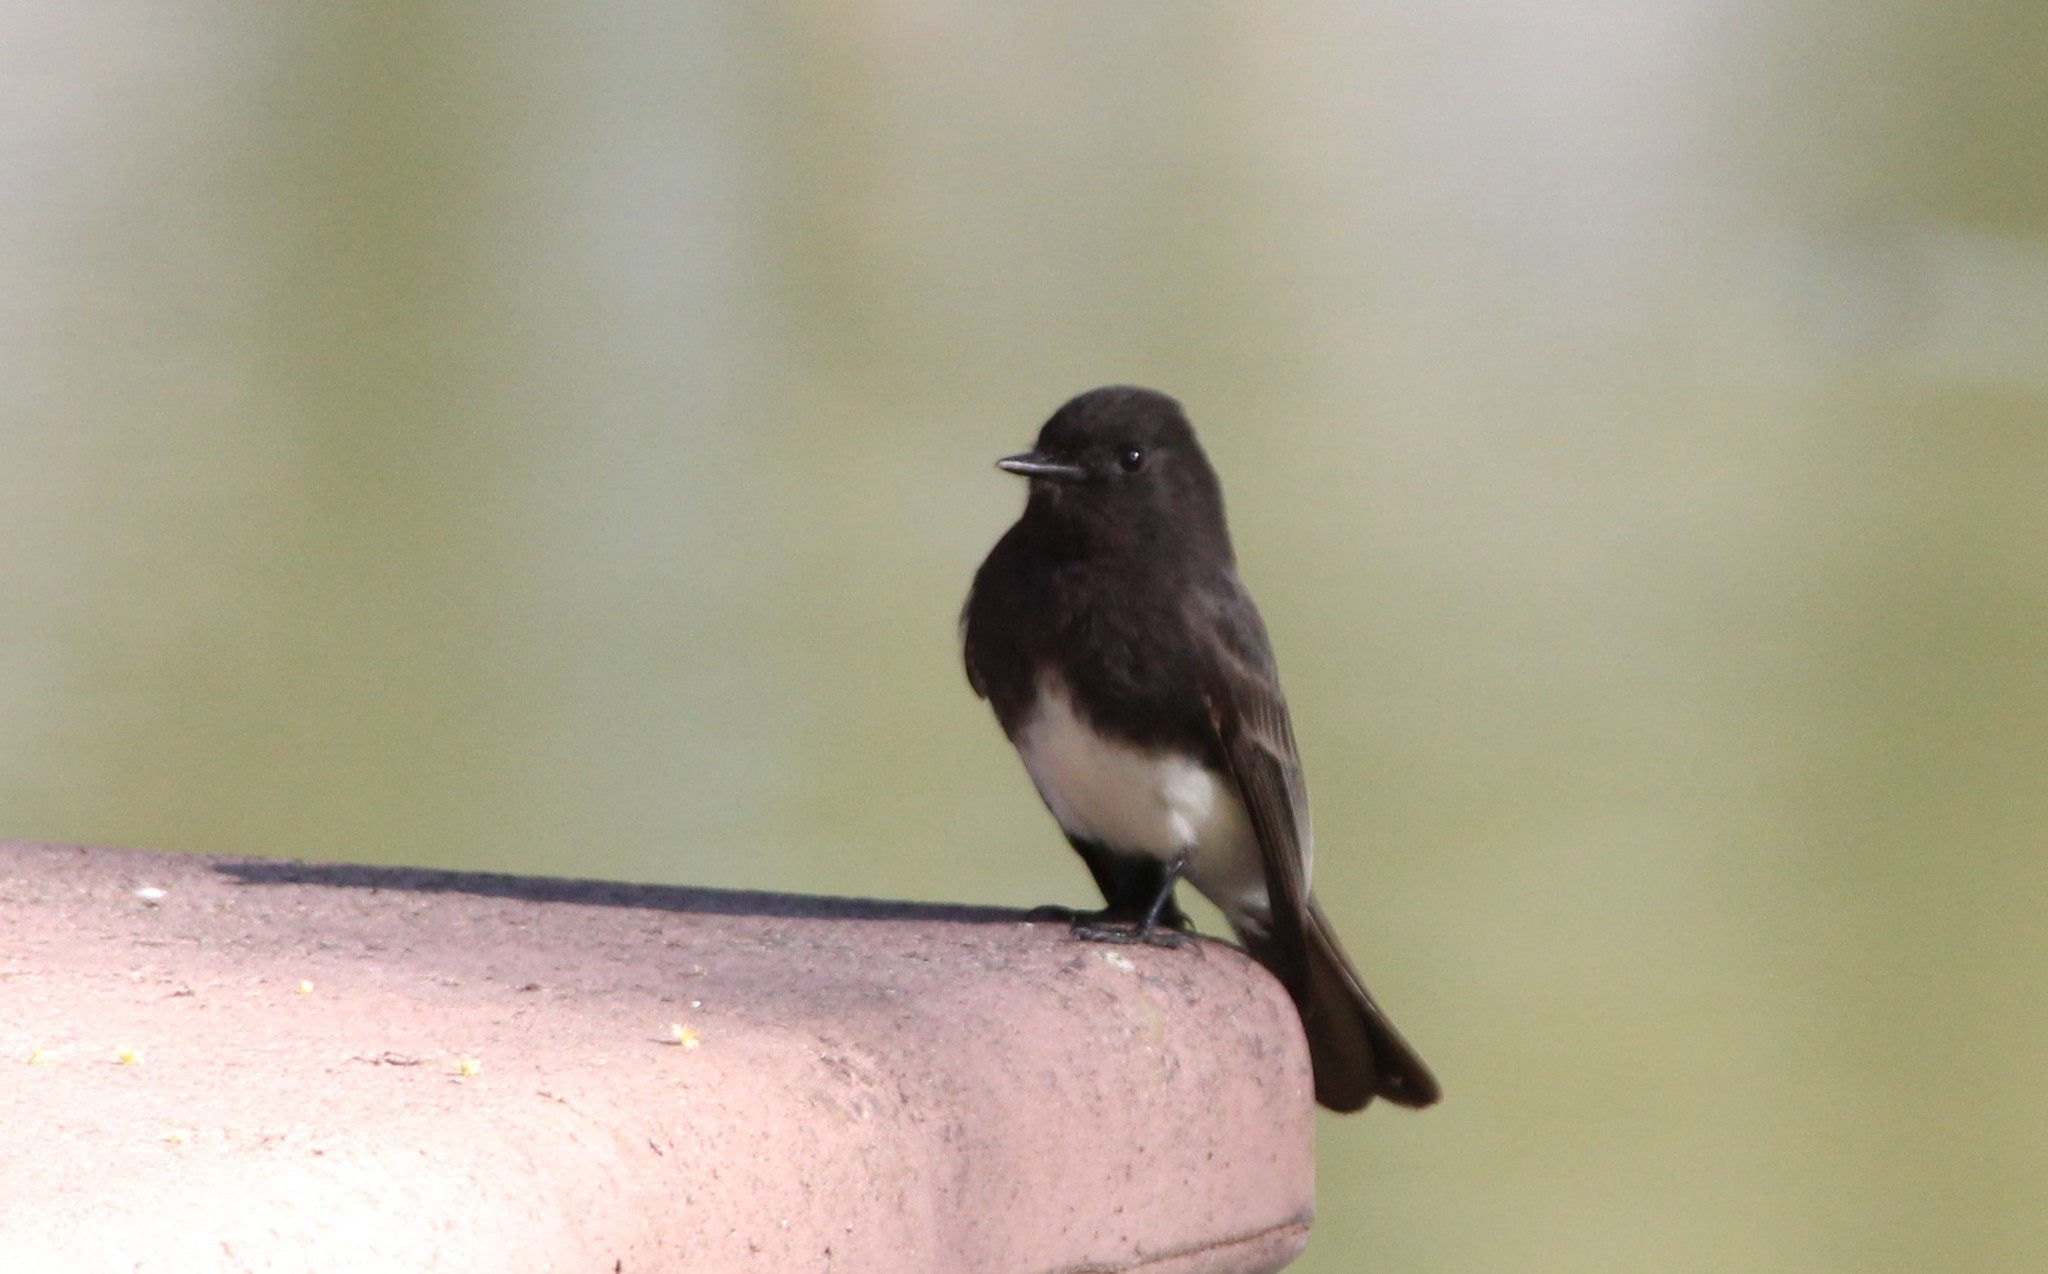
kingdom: Animalia
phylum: Chordata
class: Aves
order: Passeriformes
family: Tyrannidae
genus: Sayornis
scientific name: Sayornis nigricans
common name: Black phoebe
